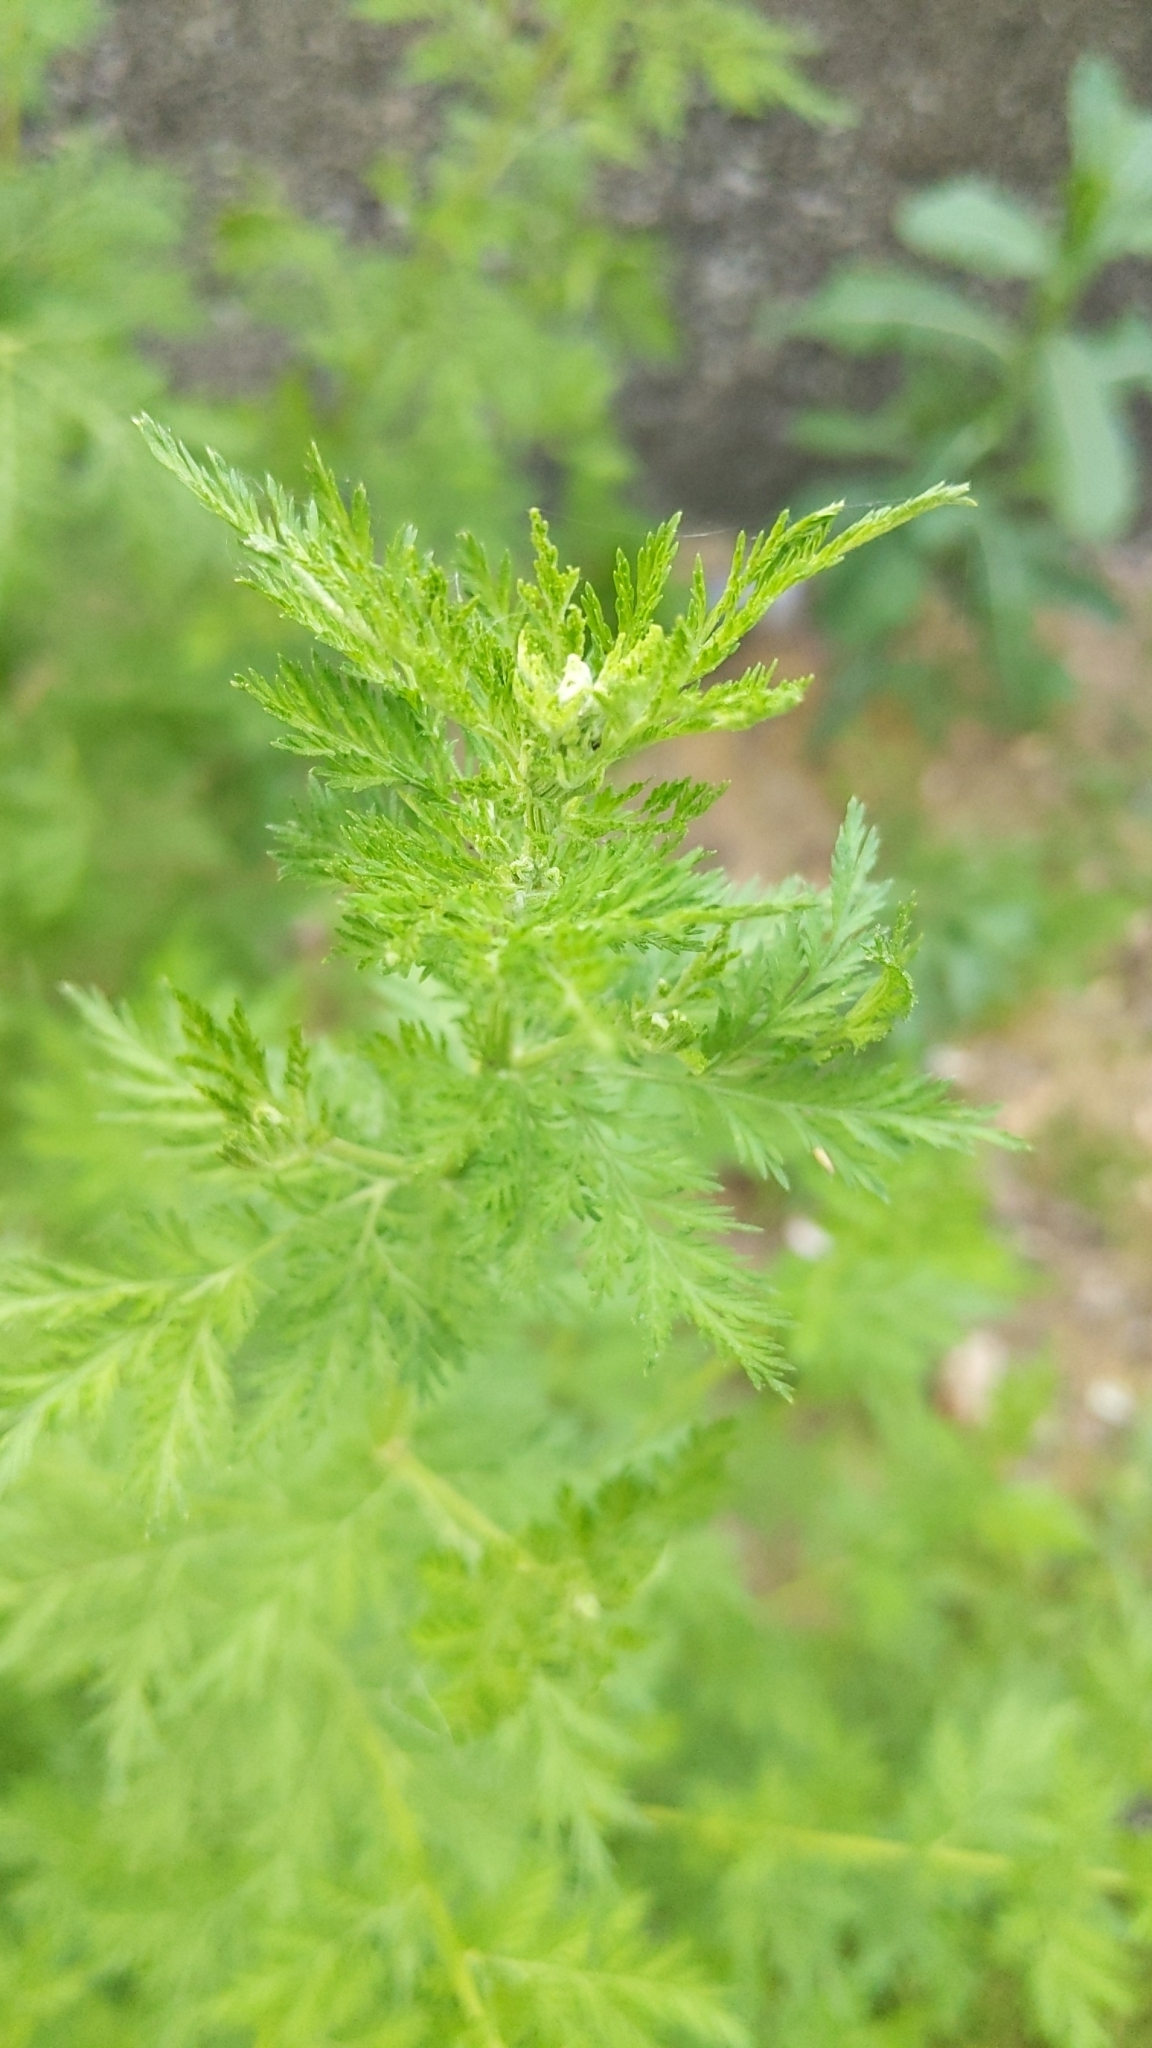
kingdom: Plantae
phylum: Tracheophyta
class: Magnoliopsida
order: Asterales
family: Asteraceae
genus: Artemisia
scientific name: Artemisia annua
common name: Sweet sagewort
